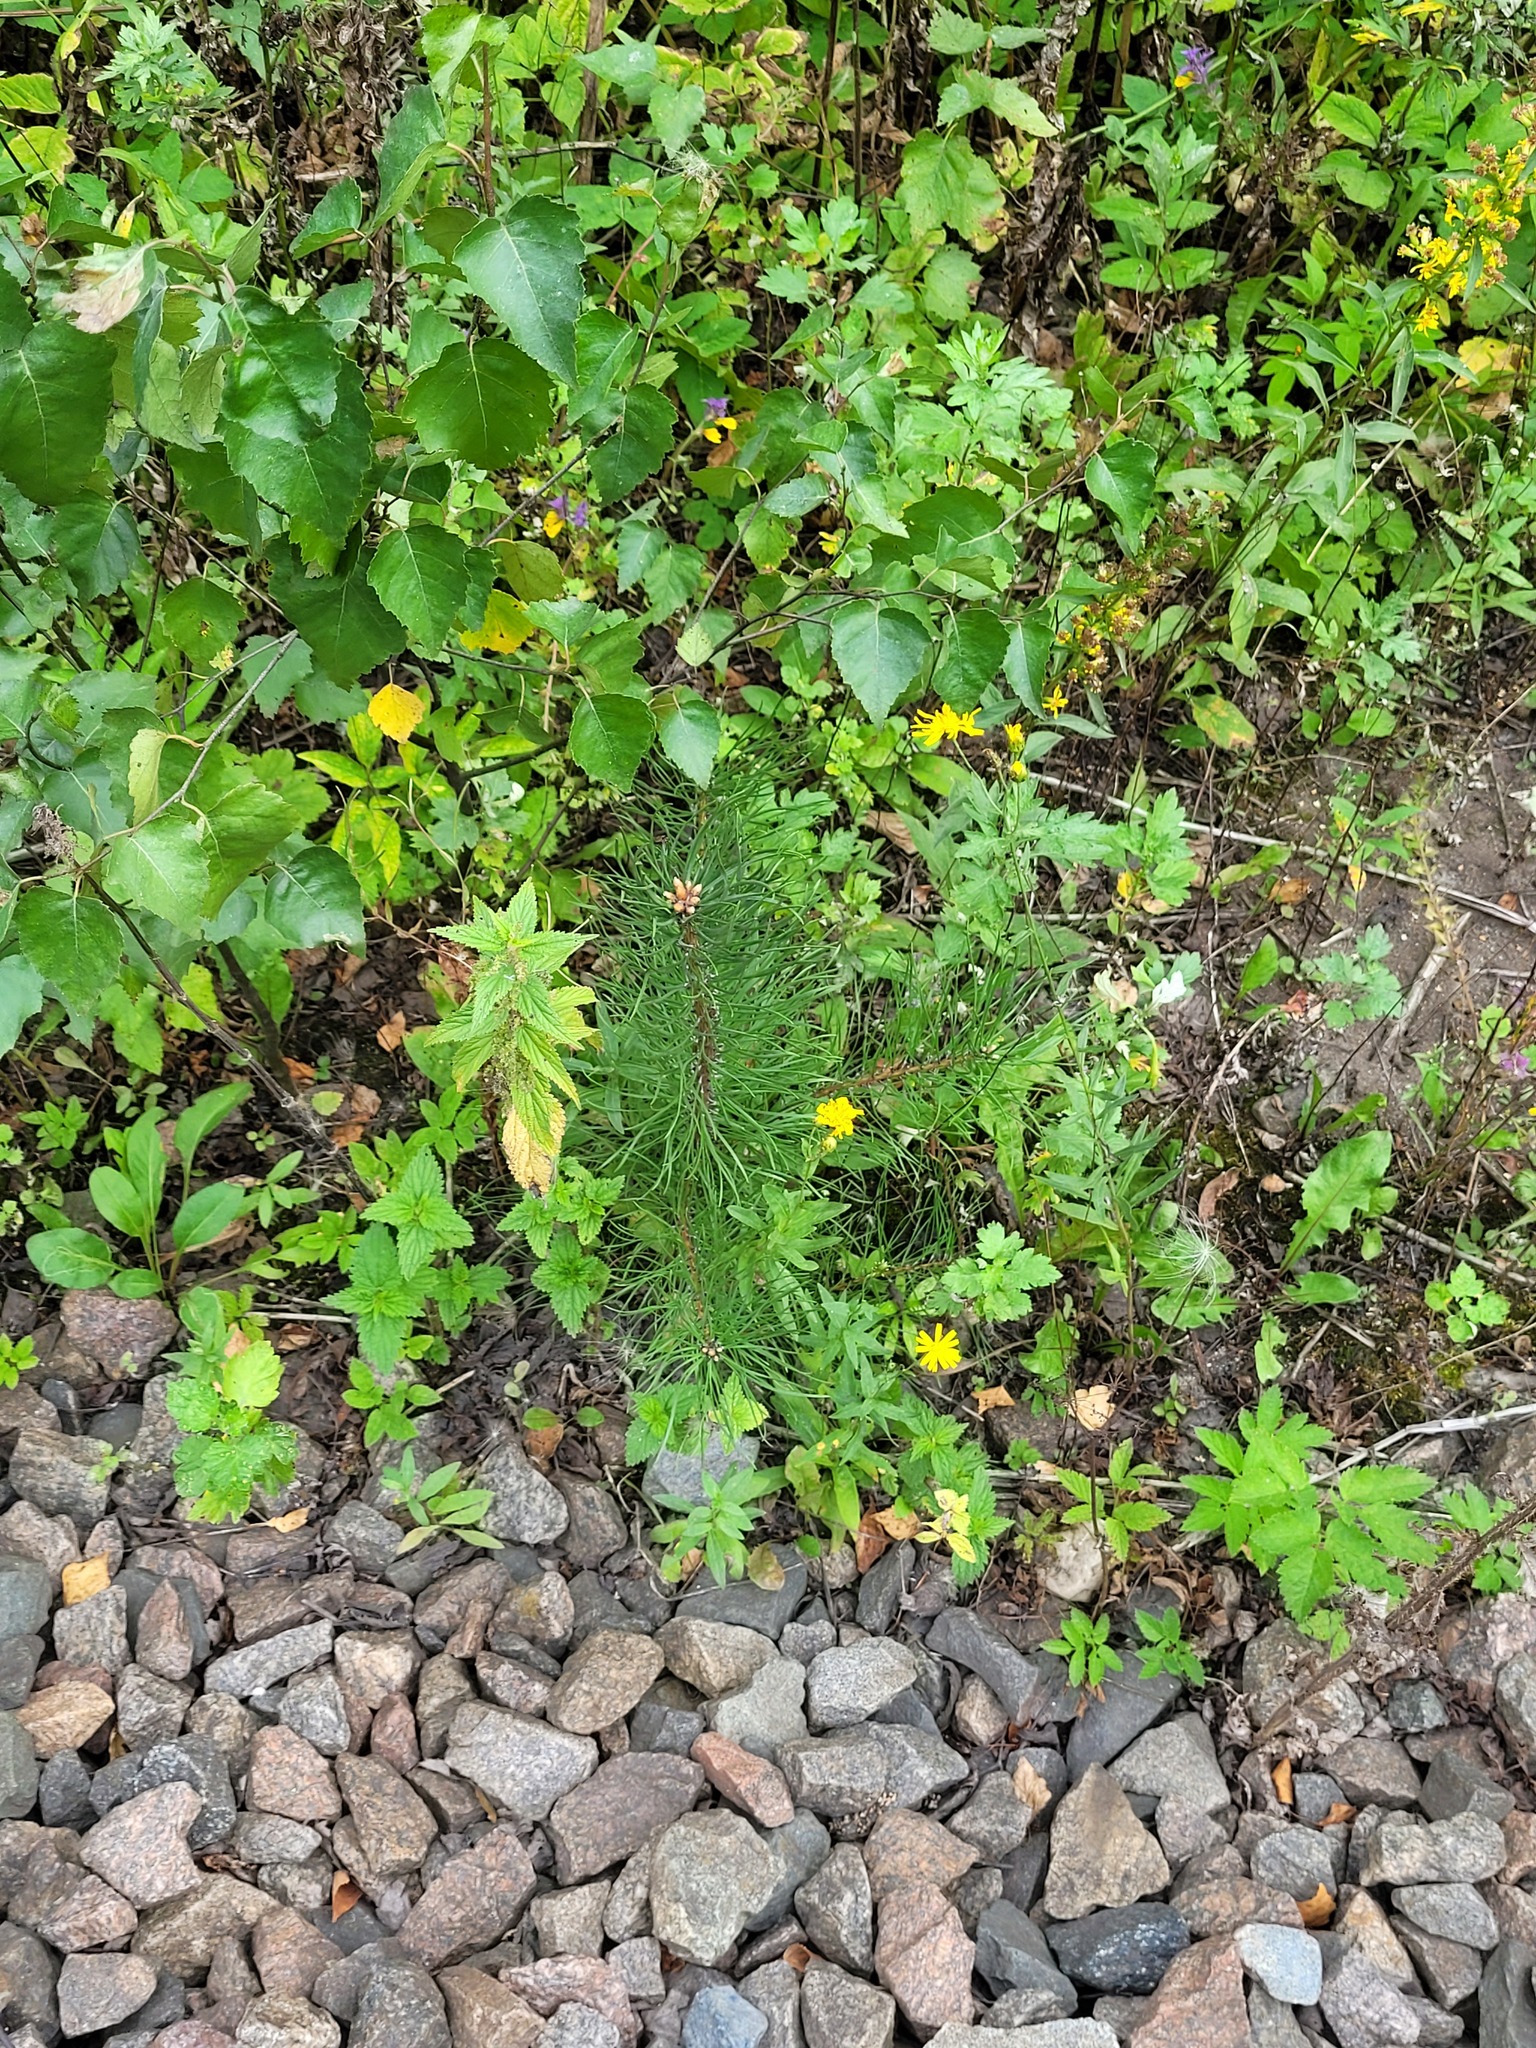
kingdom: Plantae
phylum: Tracheophyta
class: Pinopsida
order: Pinales
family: Pinaceae
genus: Pinus
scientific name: Pinus sylvestris
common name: Scots pine
